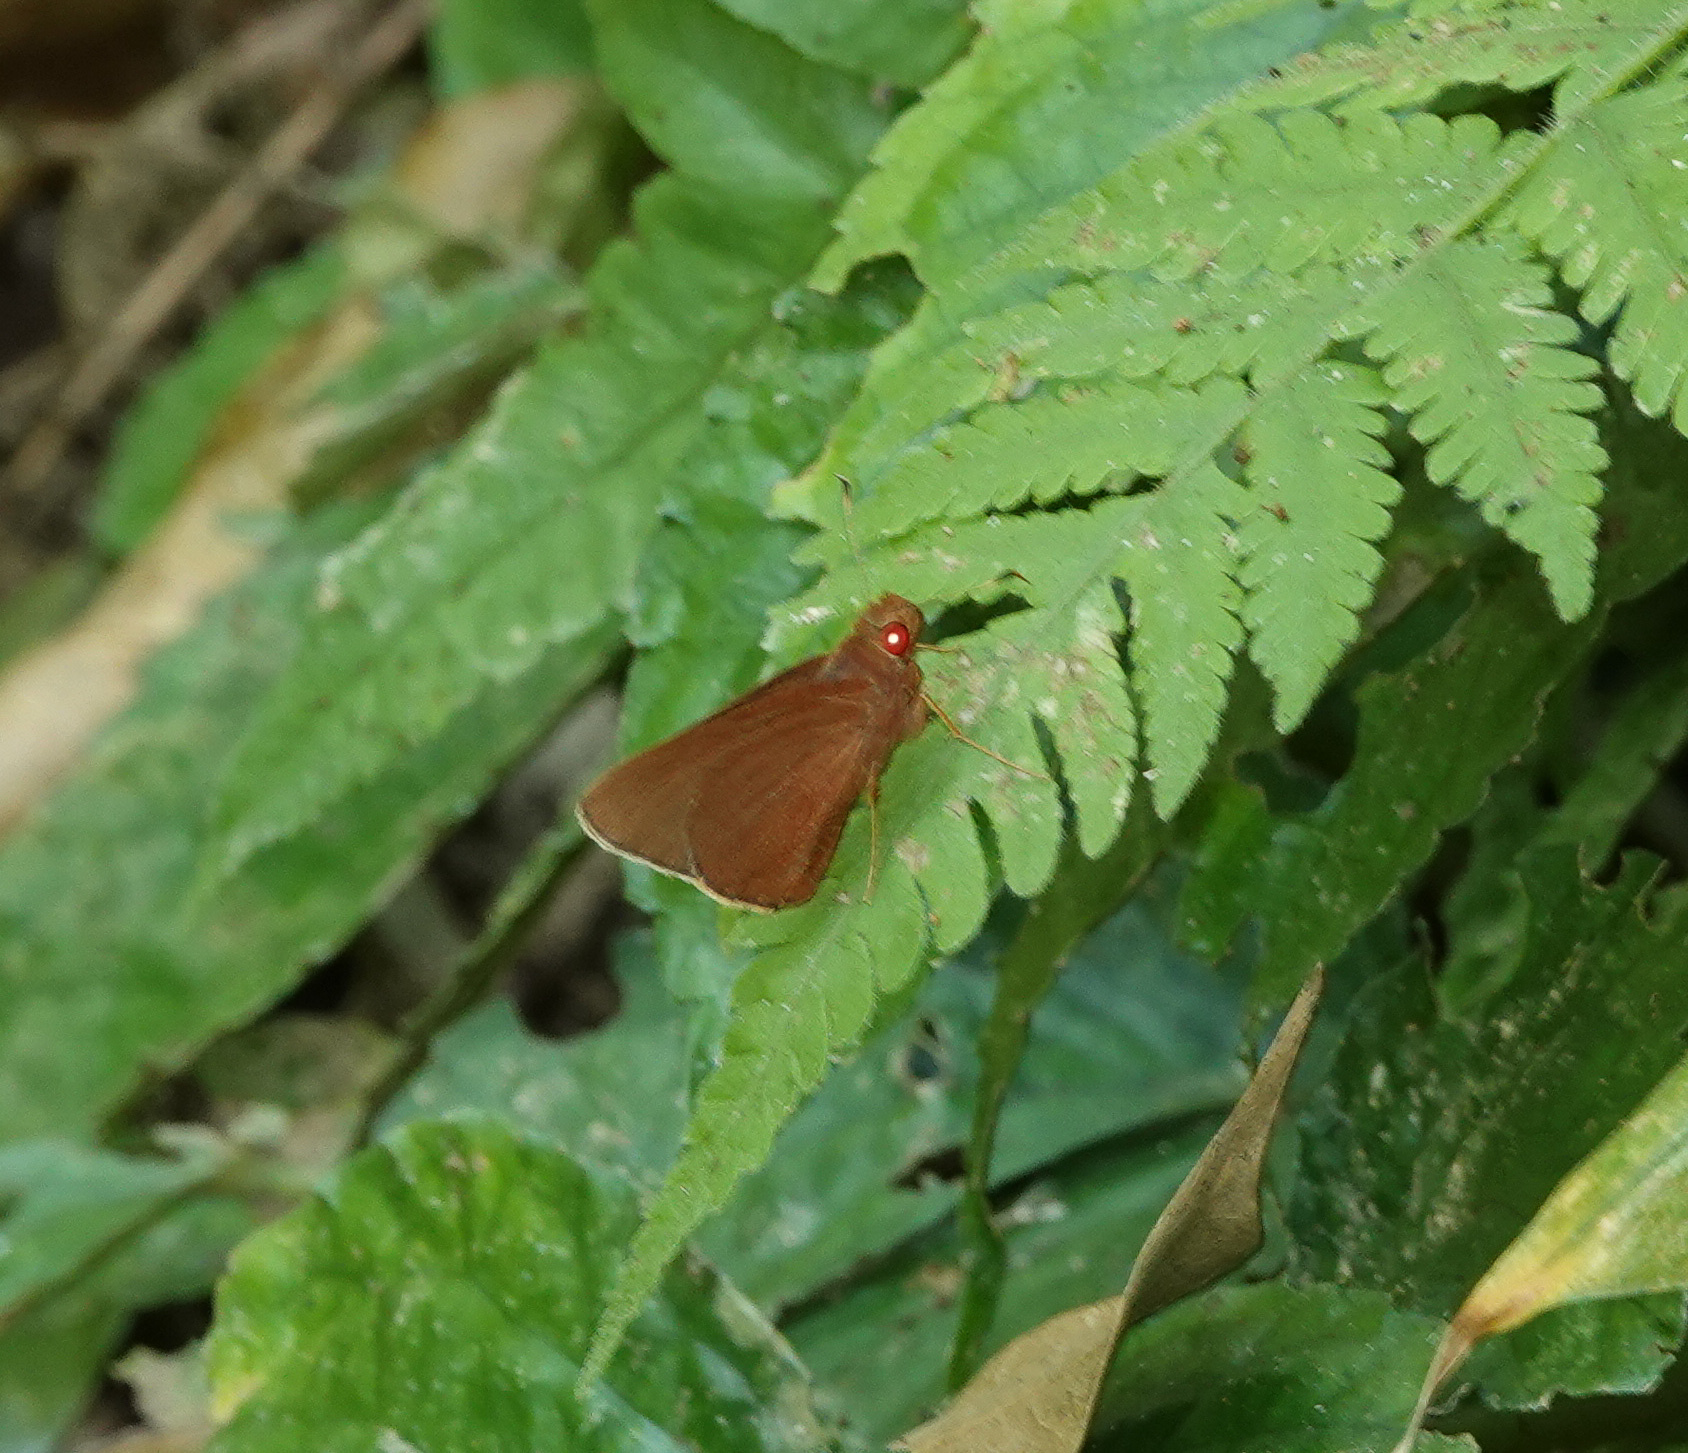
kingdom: Animalia
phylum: Arthropoda
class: Insecta
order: Lepidoptera
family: Hesperiidae
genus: Matapa
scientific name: Matapa aria
